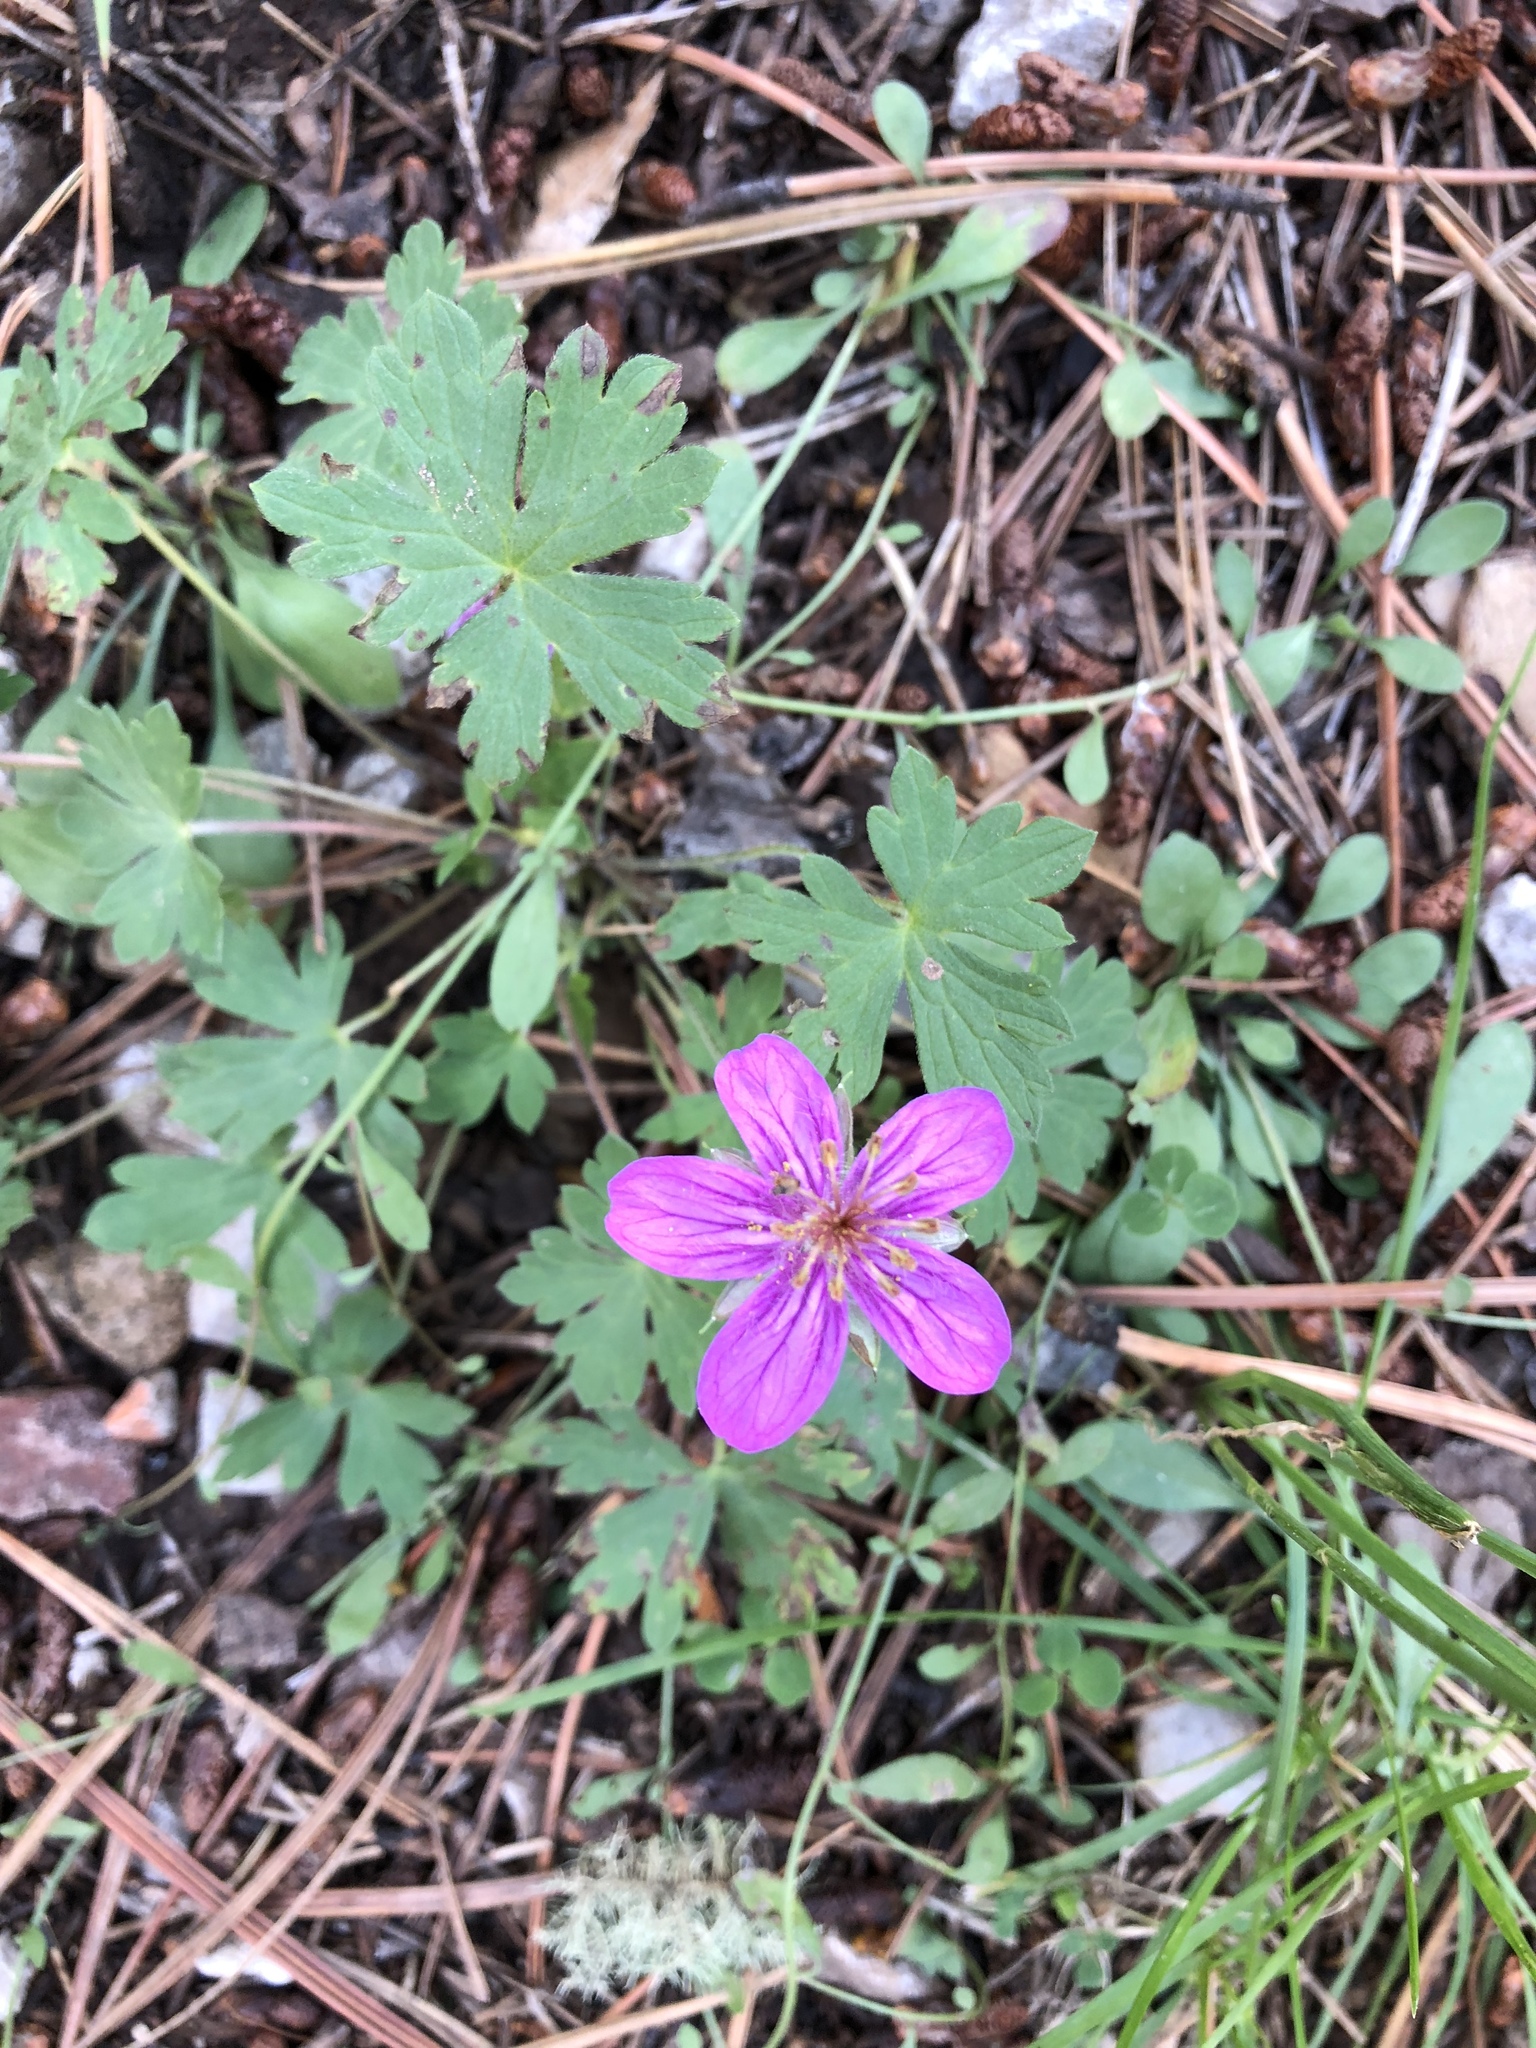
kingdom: Plantae
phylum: Tracheophyta
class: Magnoliopsida
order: Geraniales
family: Geraniaceae
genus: Geranium
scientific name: Geranium caespitosum
